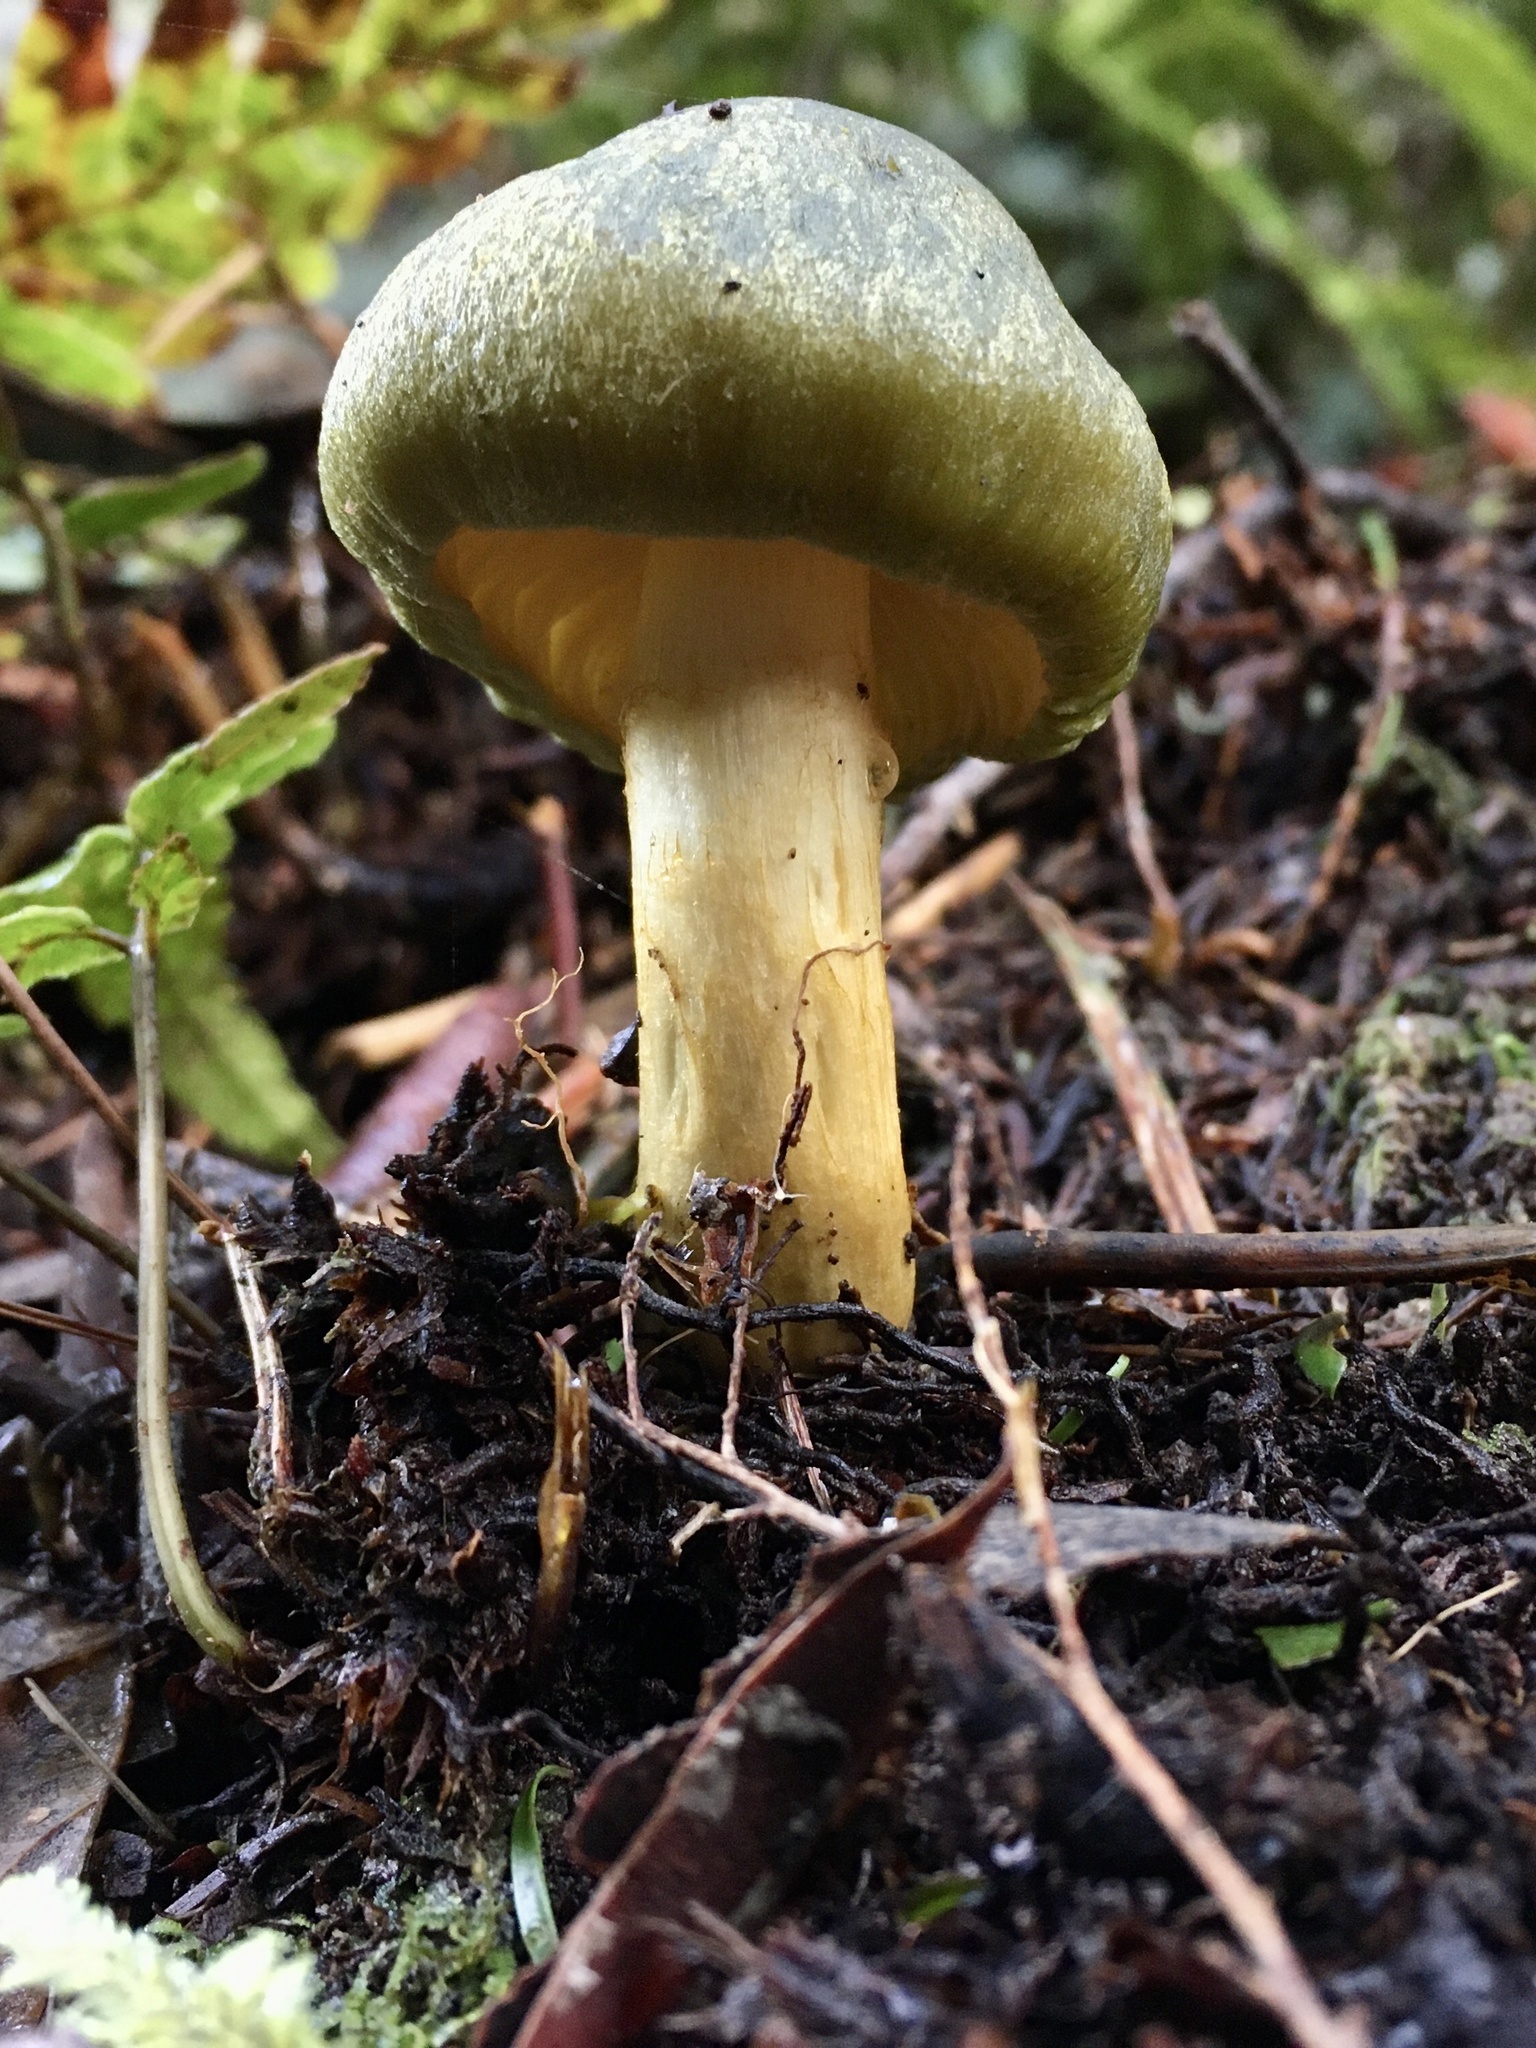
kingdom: Fungi
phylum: Basidiomycota
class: Agaricomycetes
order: Agaricales
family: Cortinariaceae
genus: Cortinarius
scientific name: Cortinarius austrovenetus
